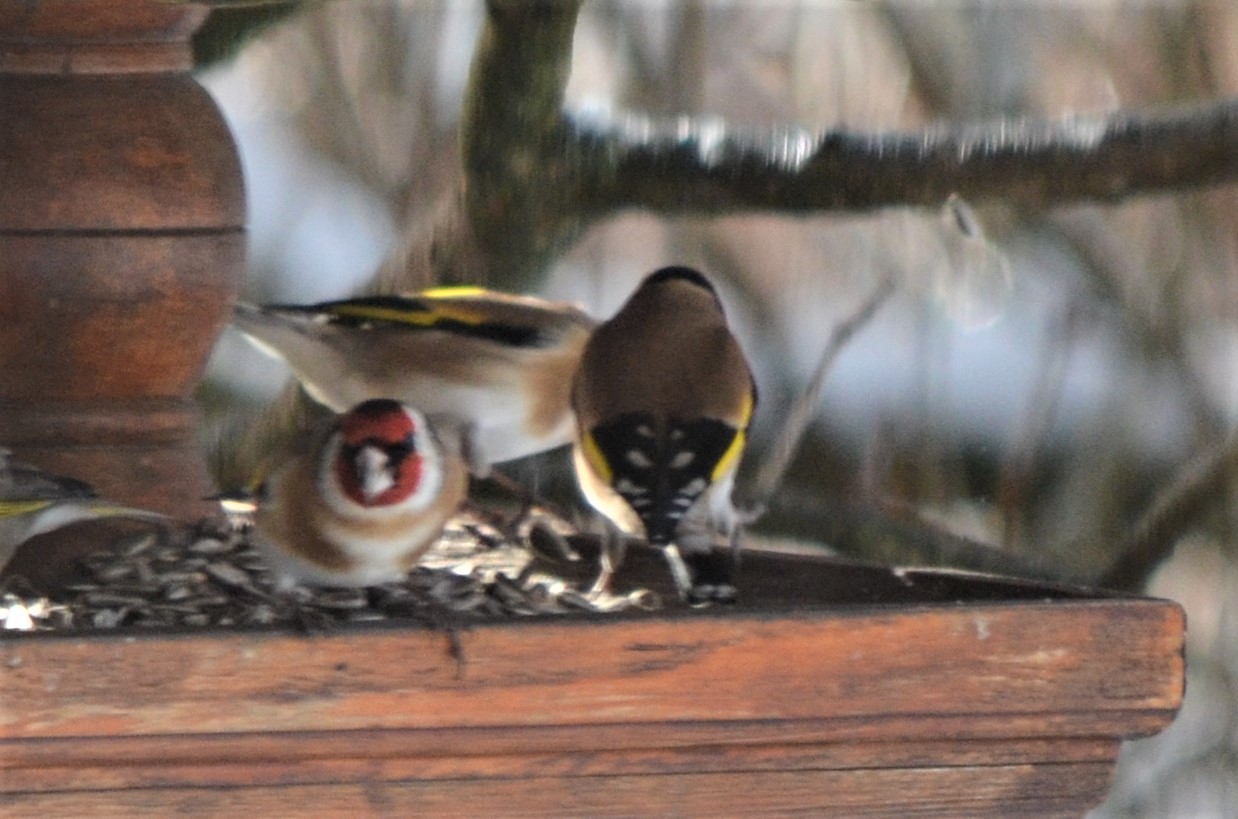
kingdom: Animalia
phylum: Chordata
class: Aves
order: Passeriformes
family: Fringillidae
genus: Carduelis
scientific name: Carduelis carduelis
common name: European goldfinch
